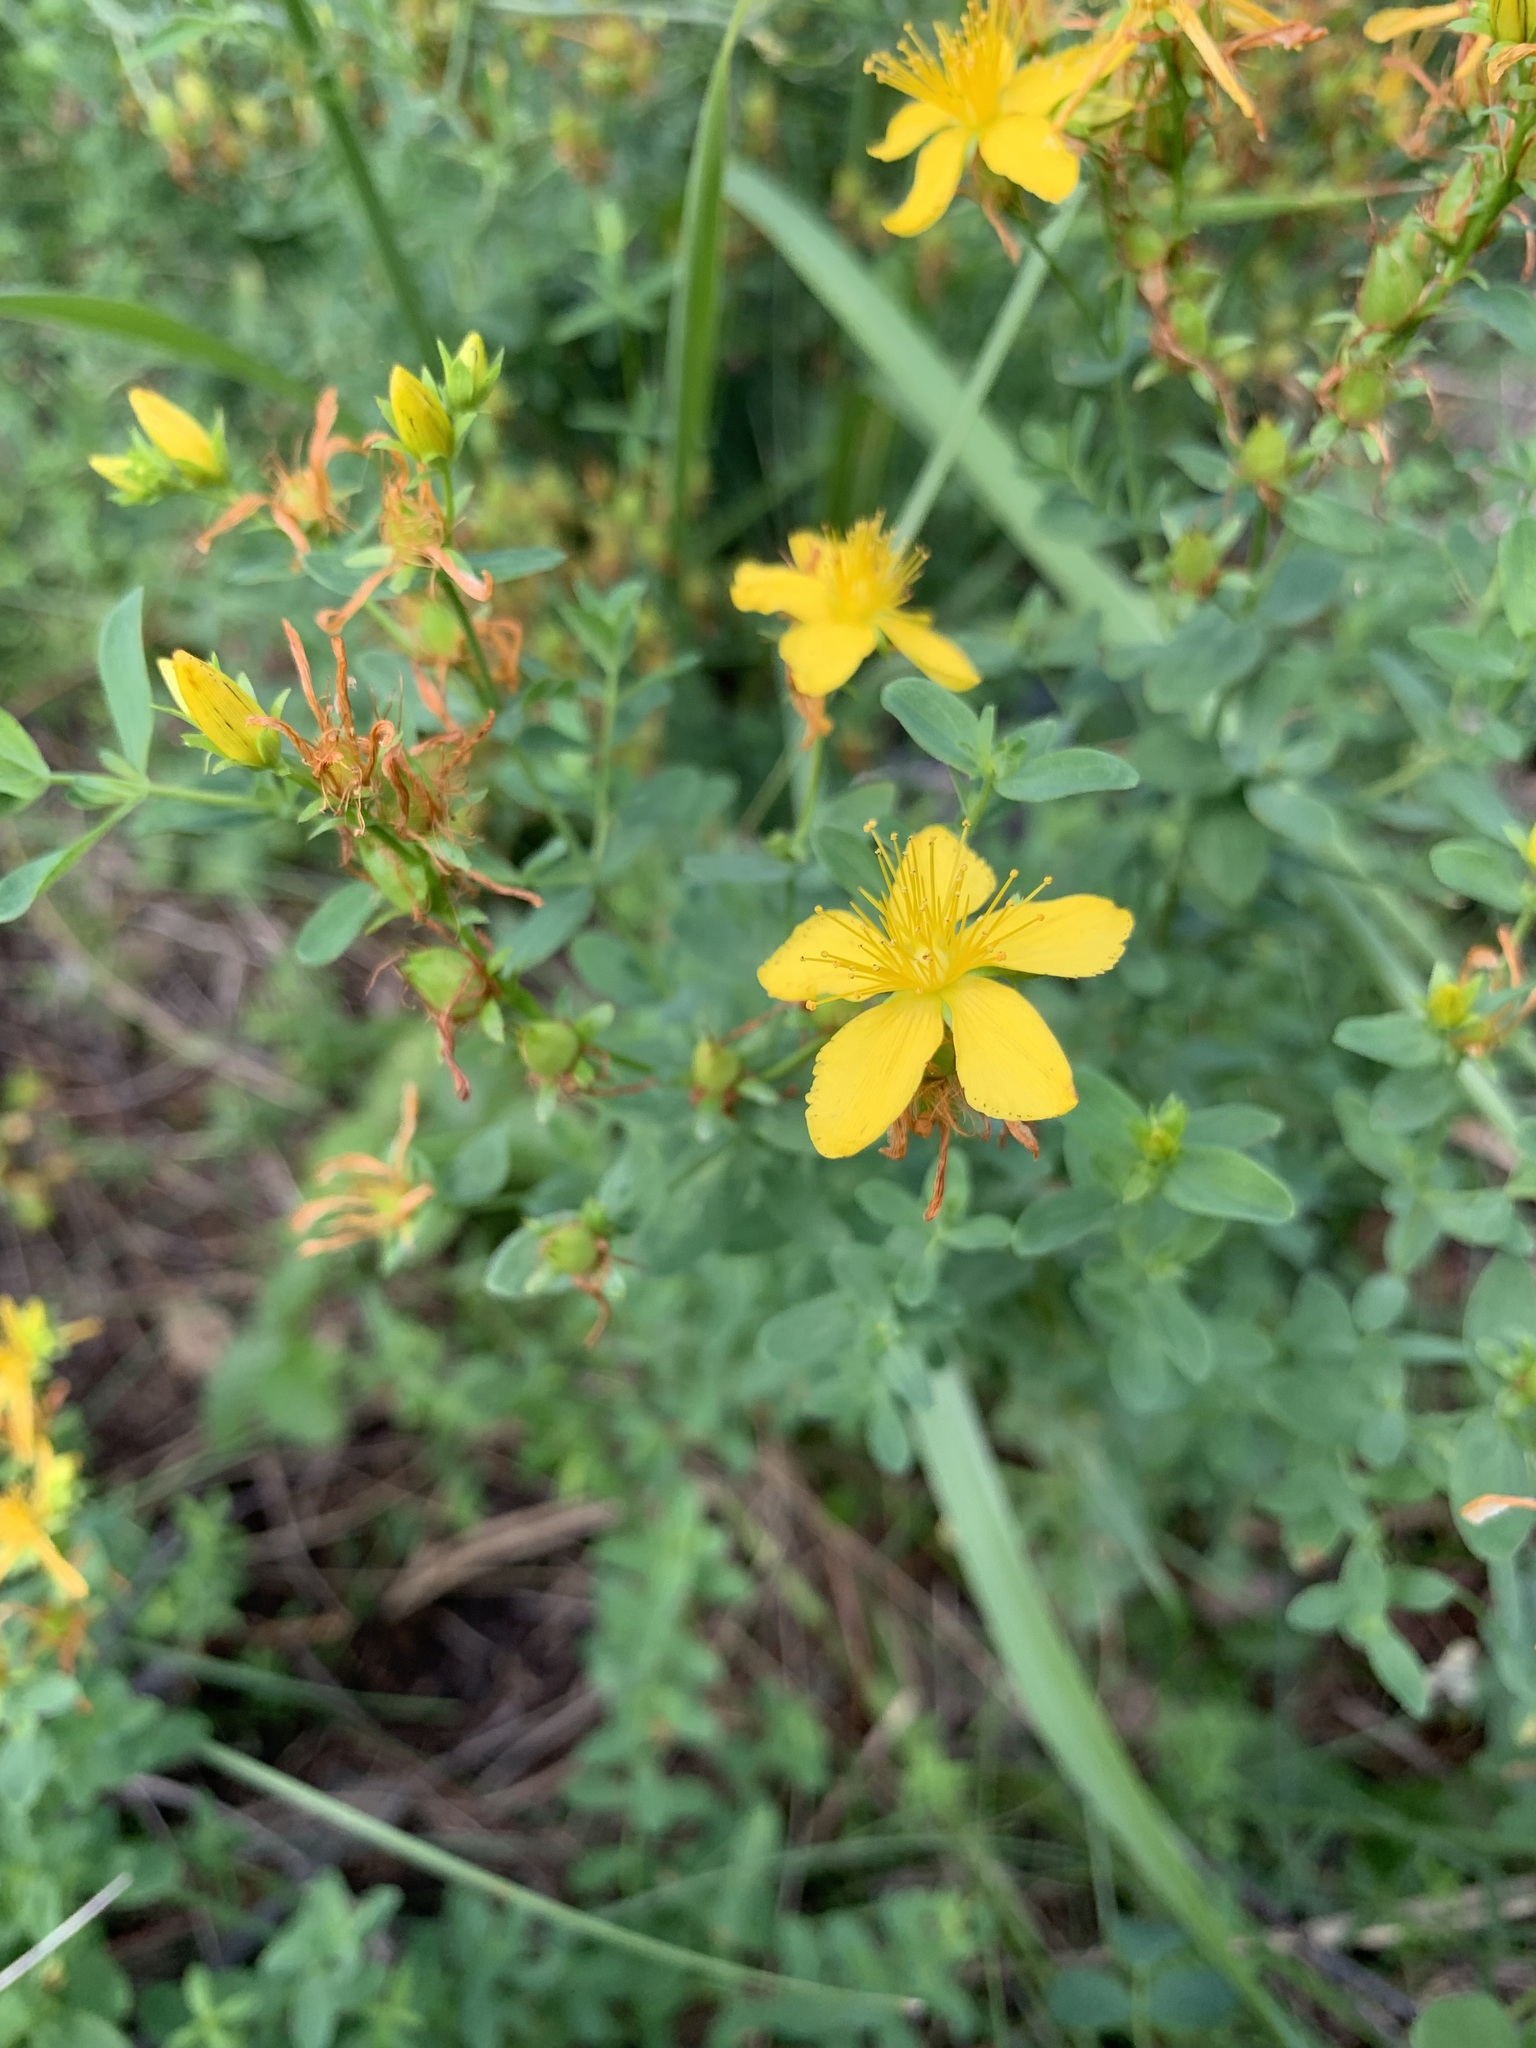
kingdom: Plantae
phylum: Tracheophyta
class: Magnoliopsida
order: Malpighiales
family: Hypericaceae
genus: Hypericum
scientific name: Hypericum perforatum
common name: Common st. johnswort
